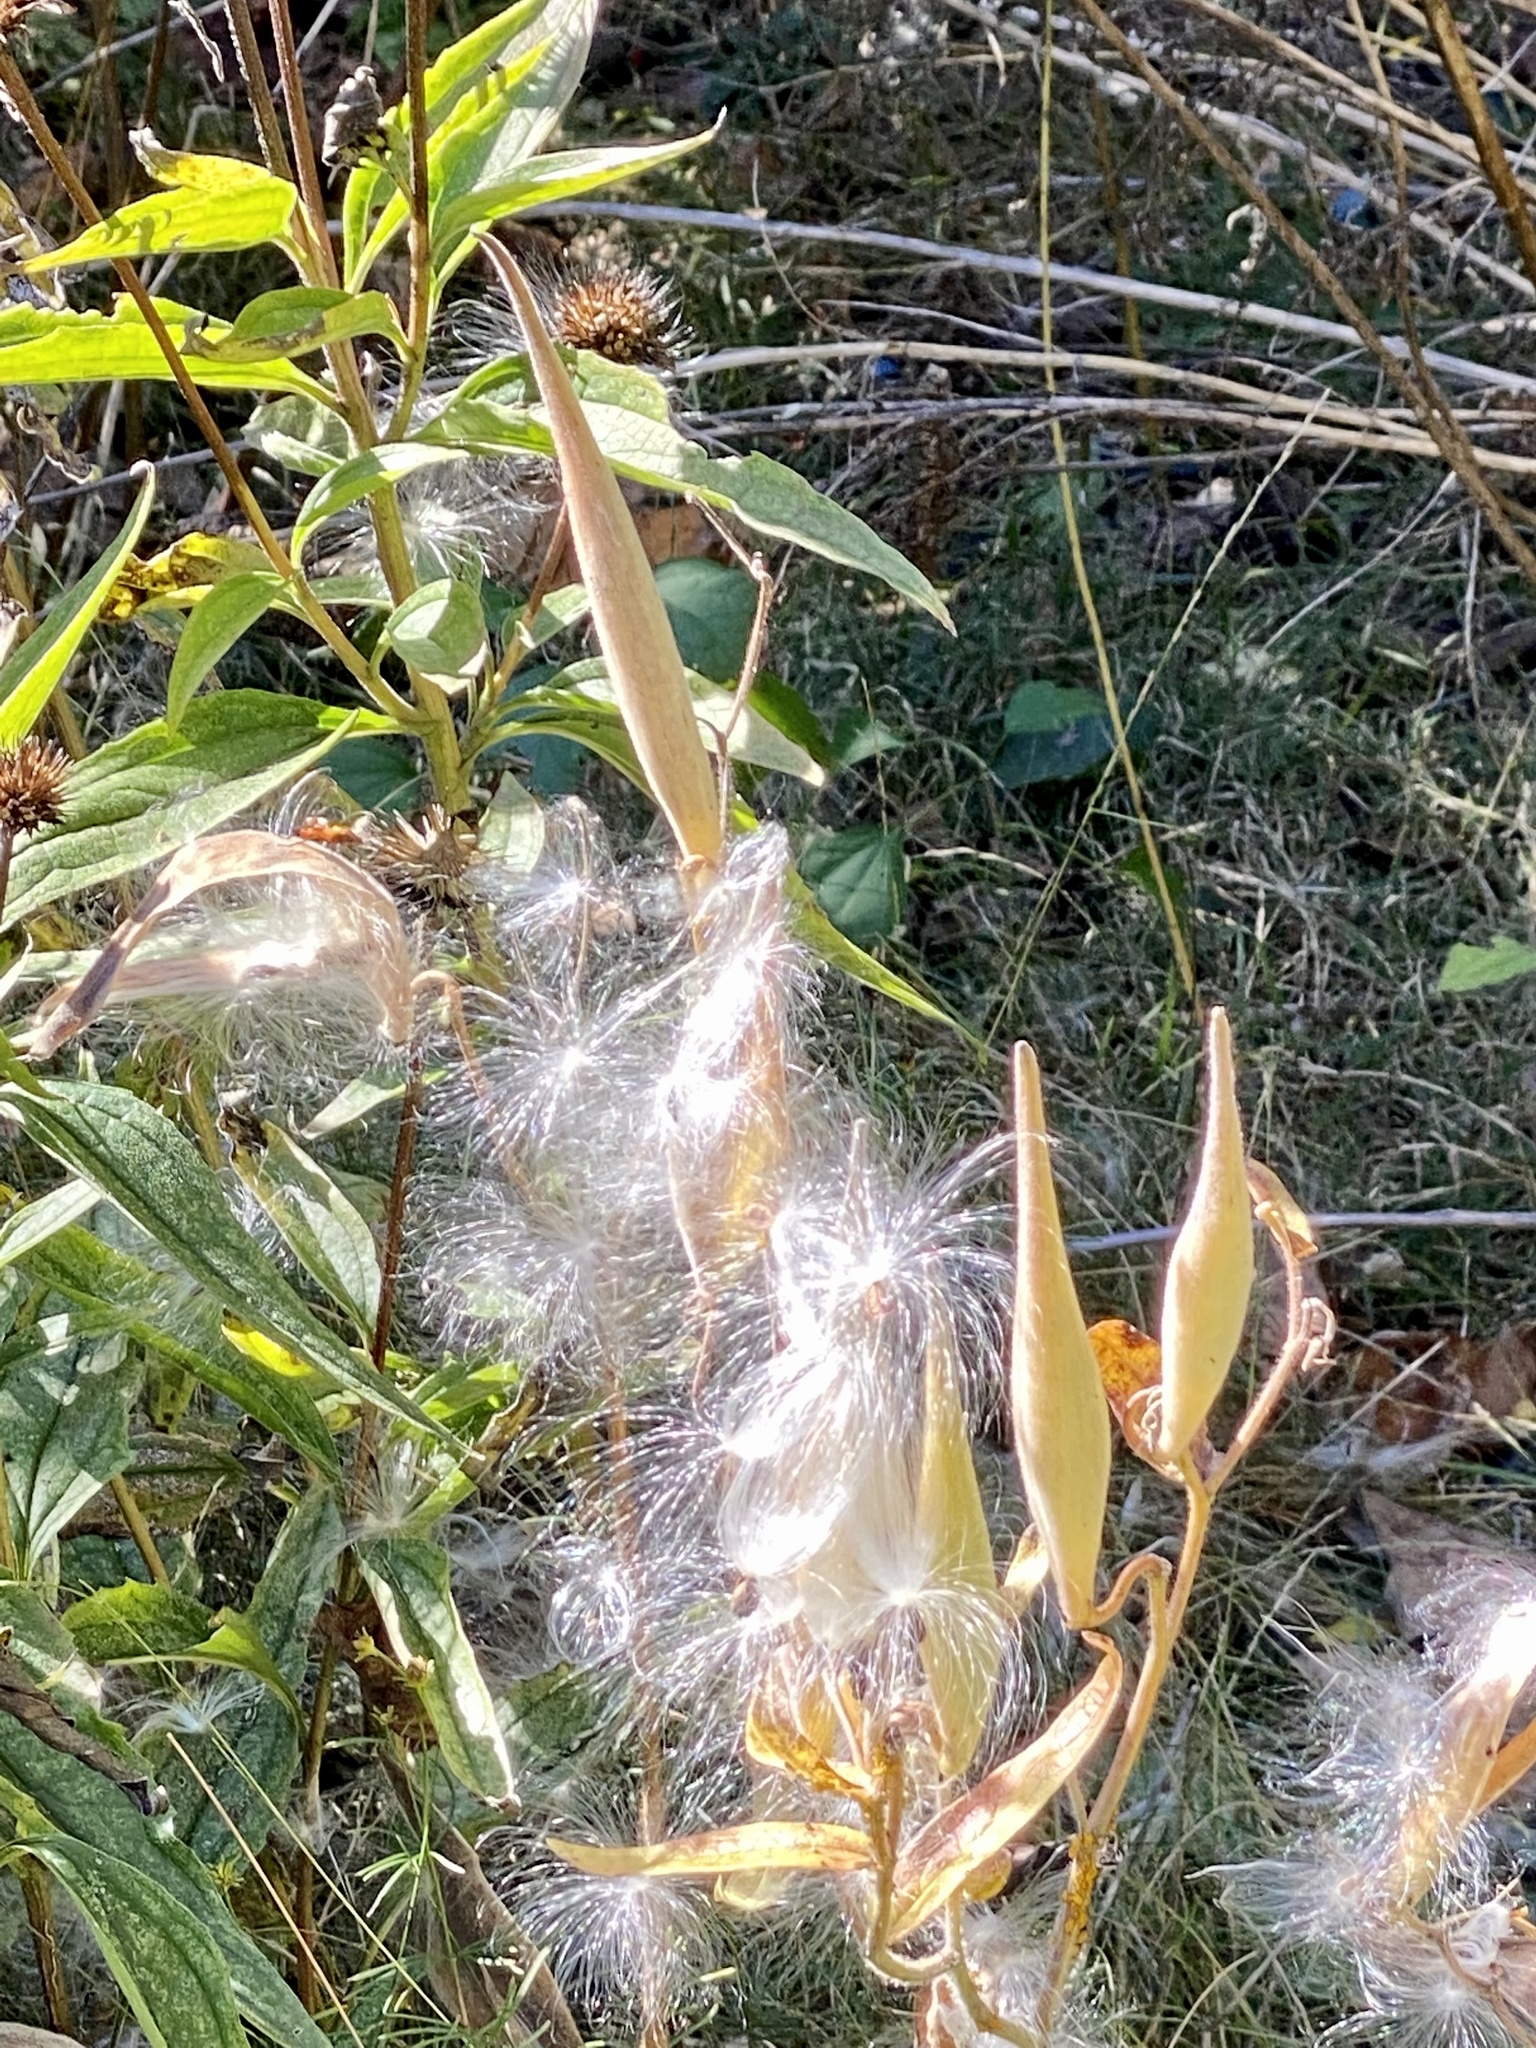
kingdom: Plantae
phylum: Tracheophyta
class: Magnoliopsida
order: Gentianales
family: Apocynaceae
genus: Asclepias
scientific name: Asclepias tuberosa
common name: Butterfly milkweed
